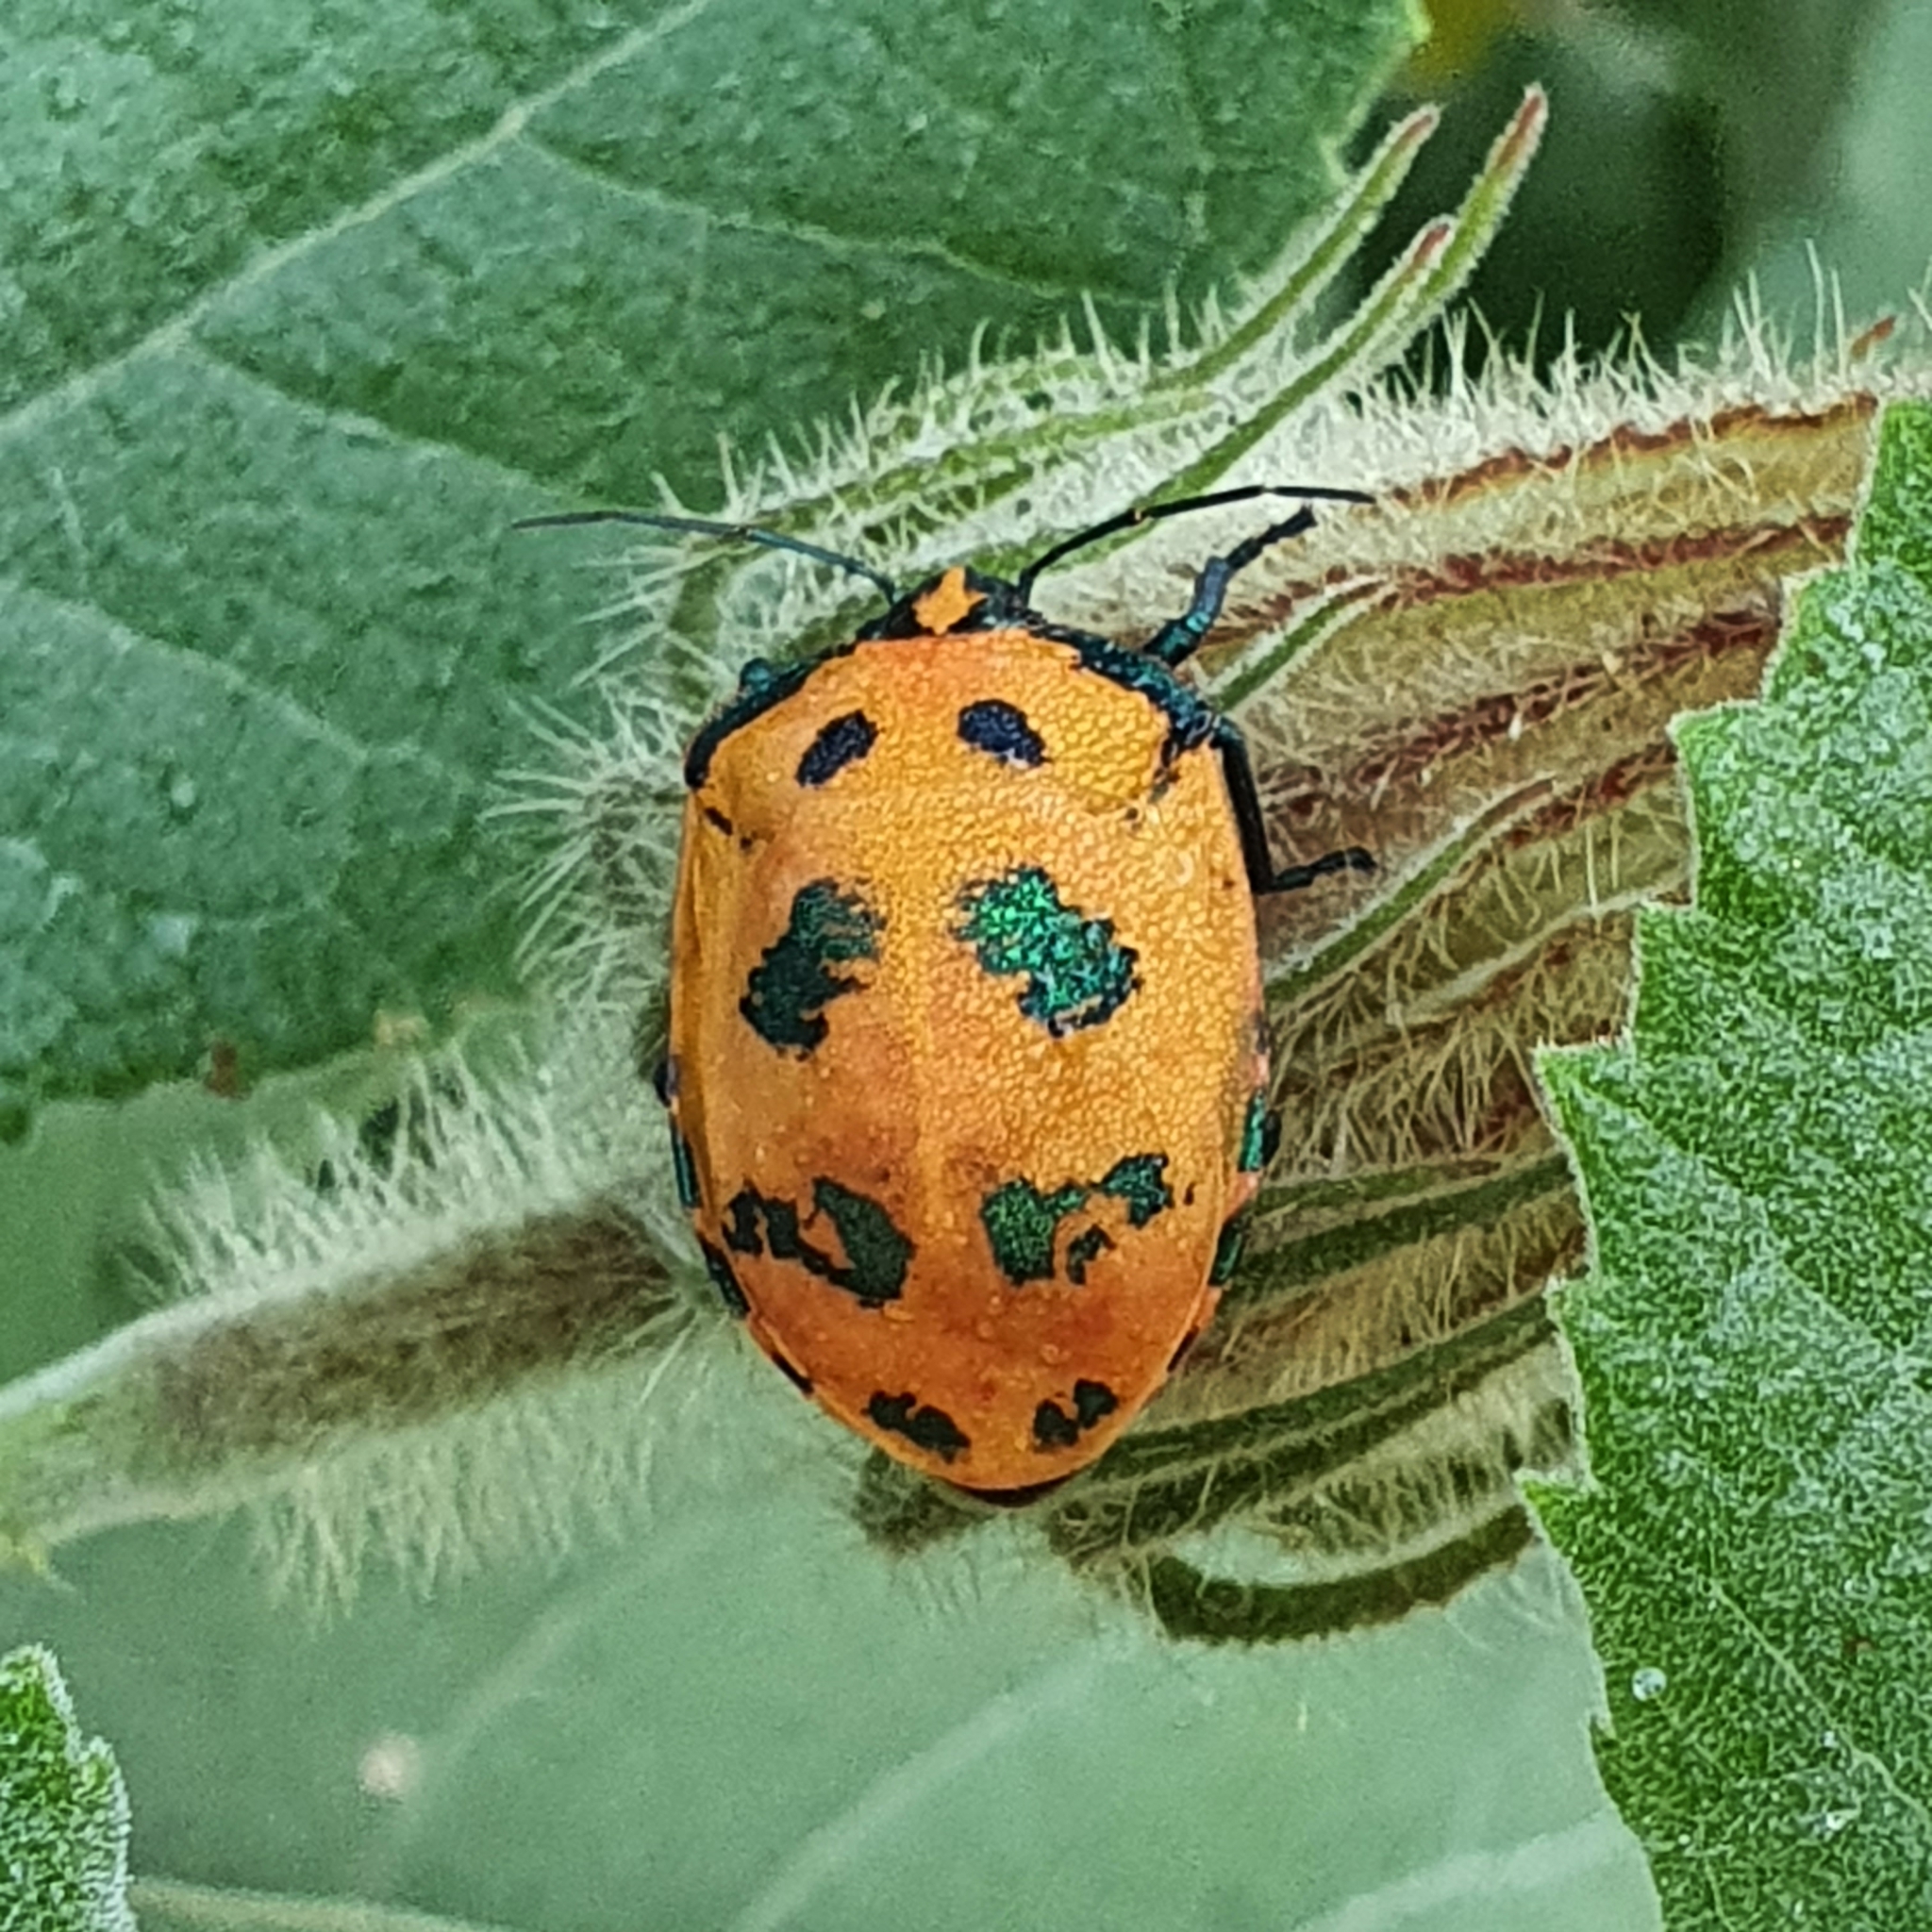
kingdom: Animalia
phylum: Arthropoda
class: Insecta
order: Hemiptera
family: Scutelleridae
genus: Tectocoris
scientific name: Tectocoris diophthalmus
